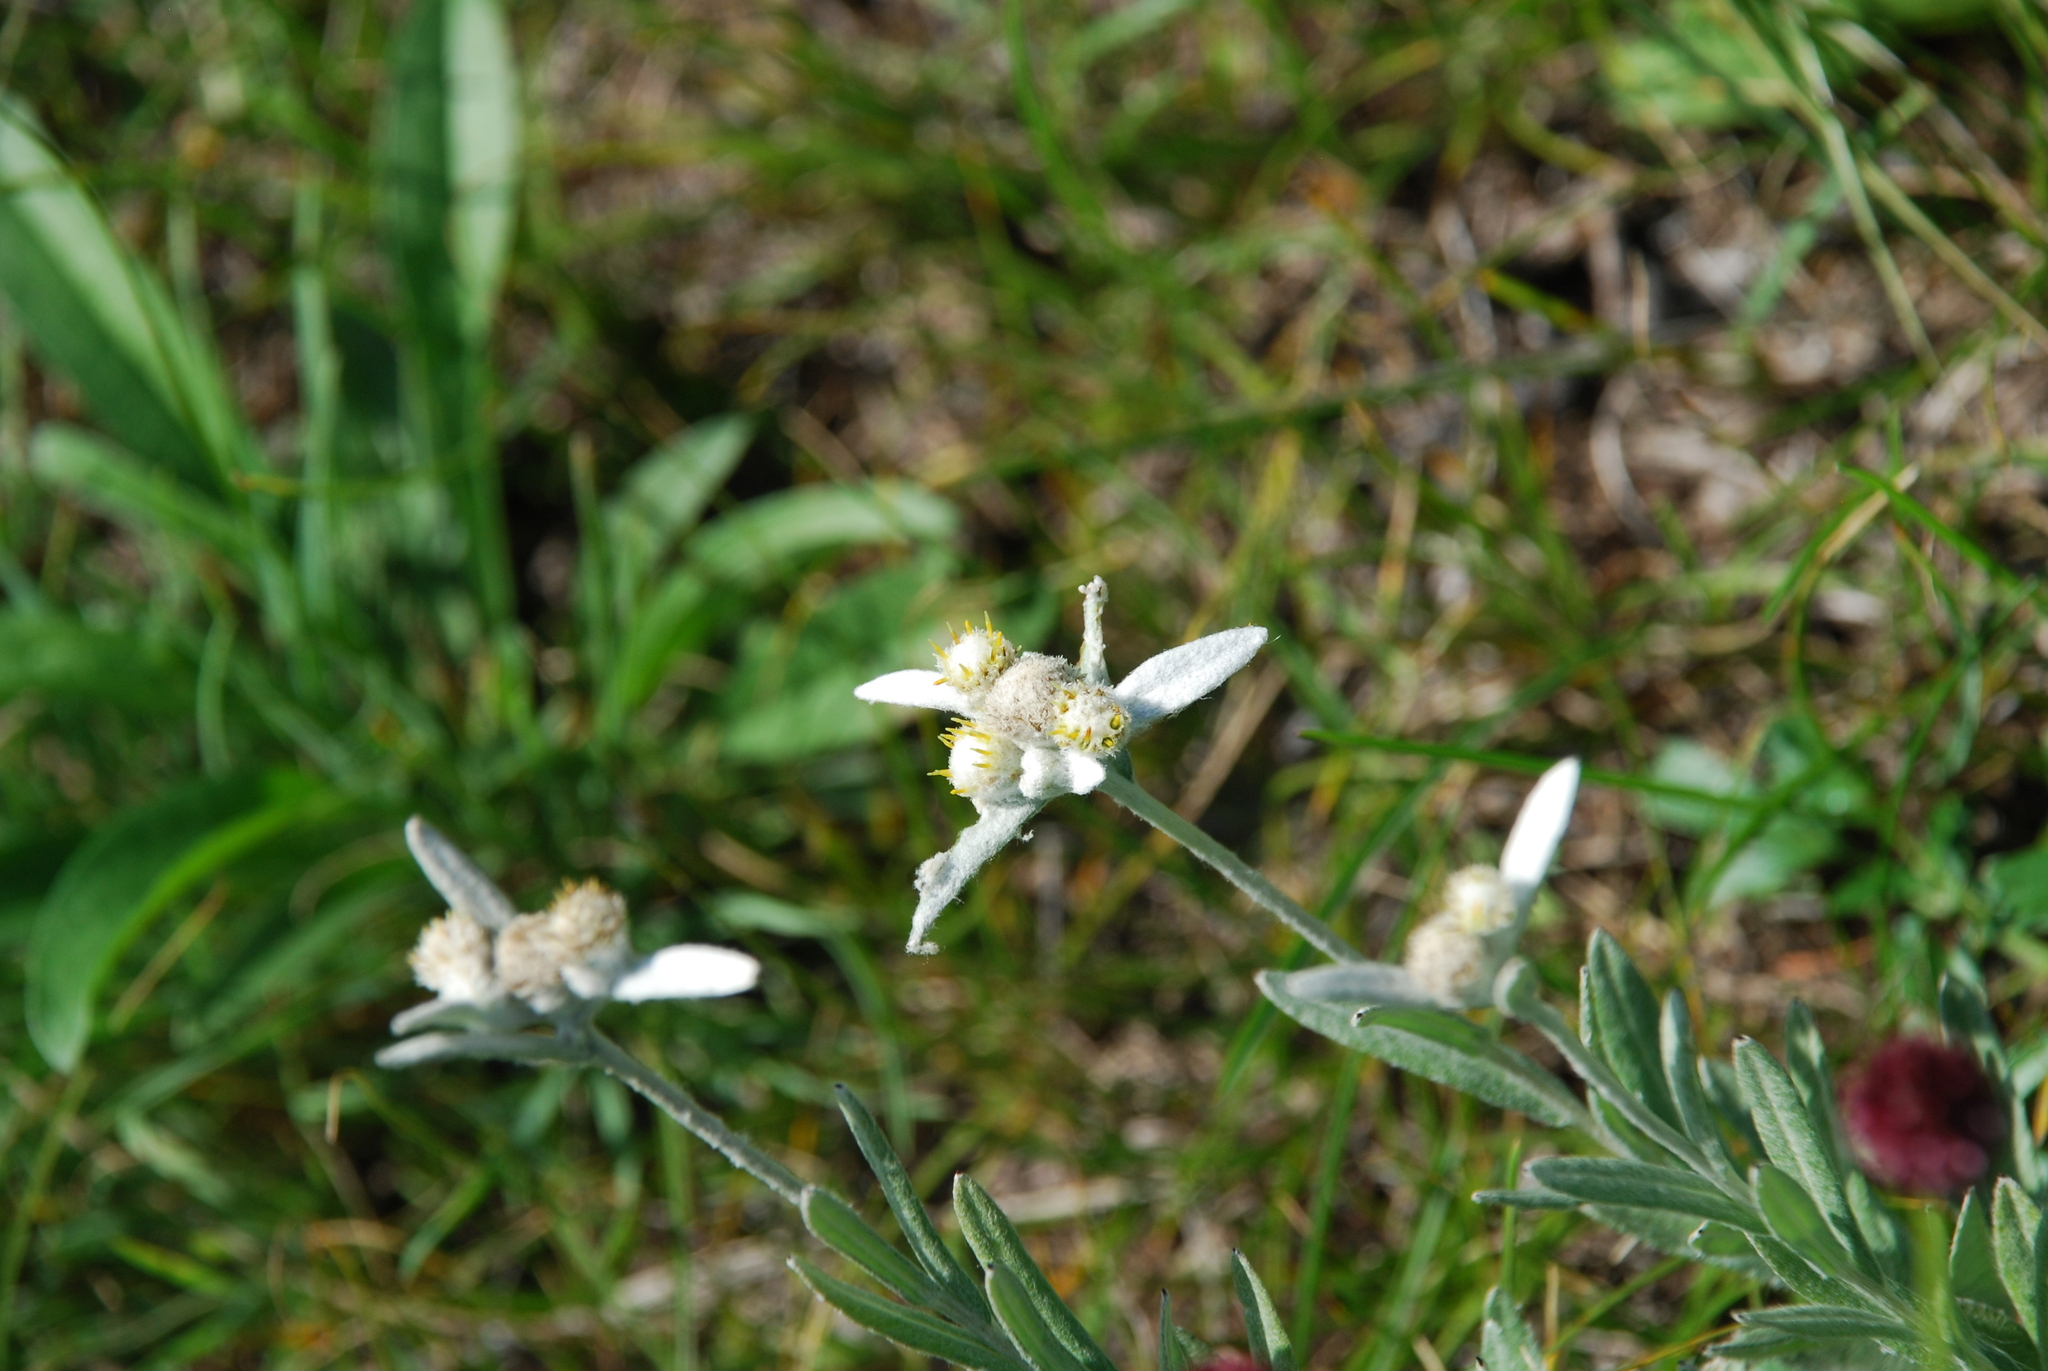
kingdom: Plantae
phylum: Tracheophyta
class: Magnoliopsida
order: Asterales
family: Asteraceae
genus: Leontopodium
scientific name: Leontopodium leontopodioides
